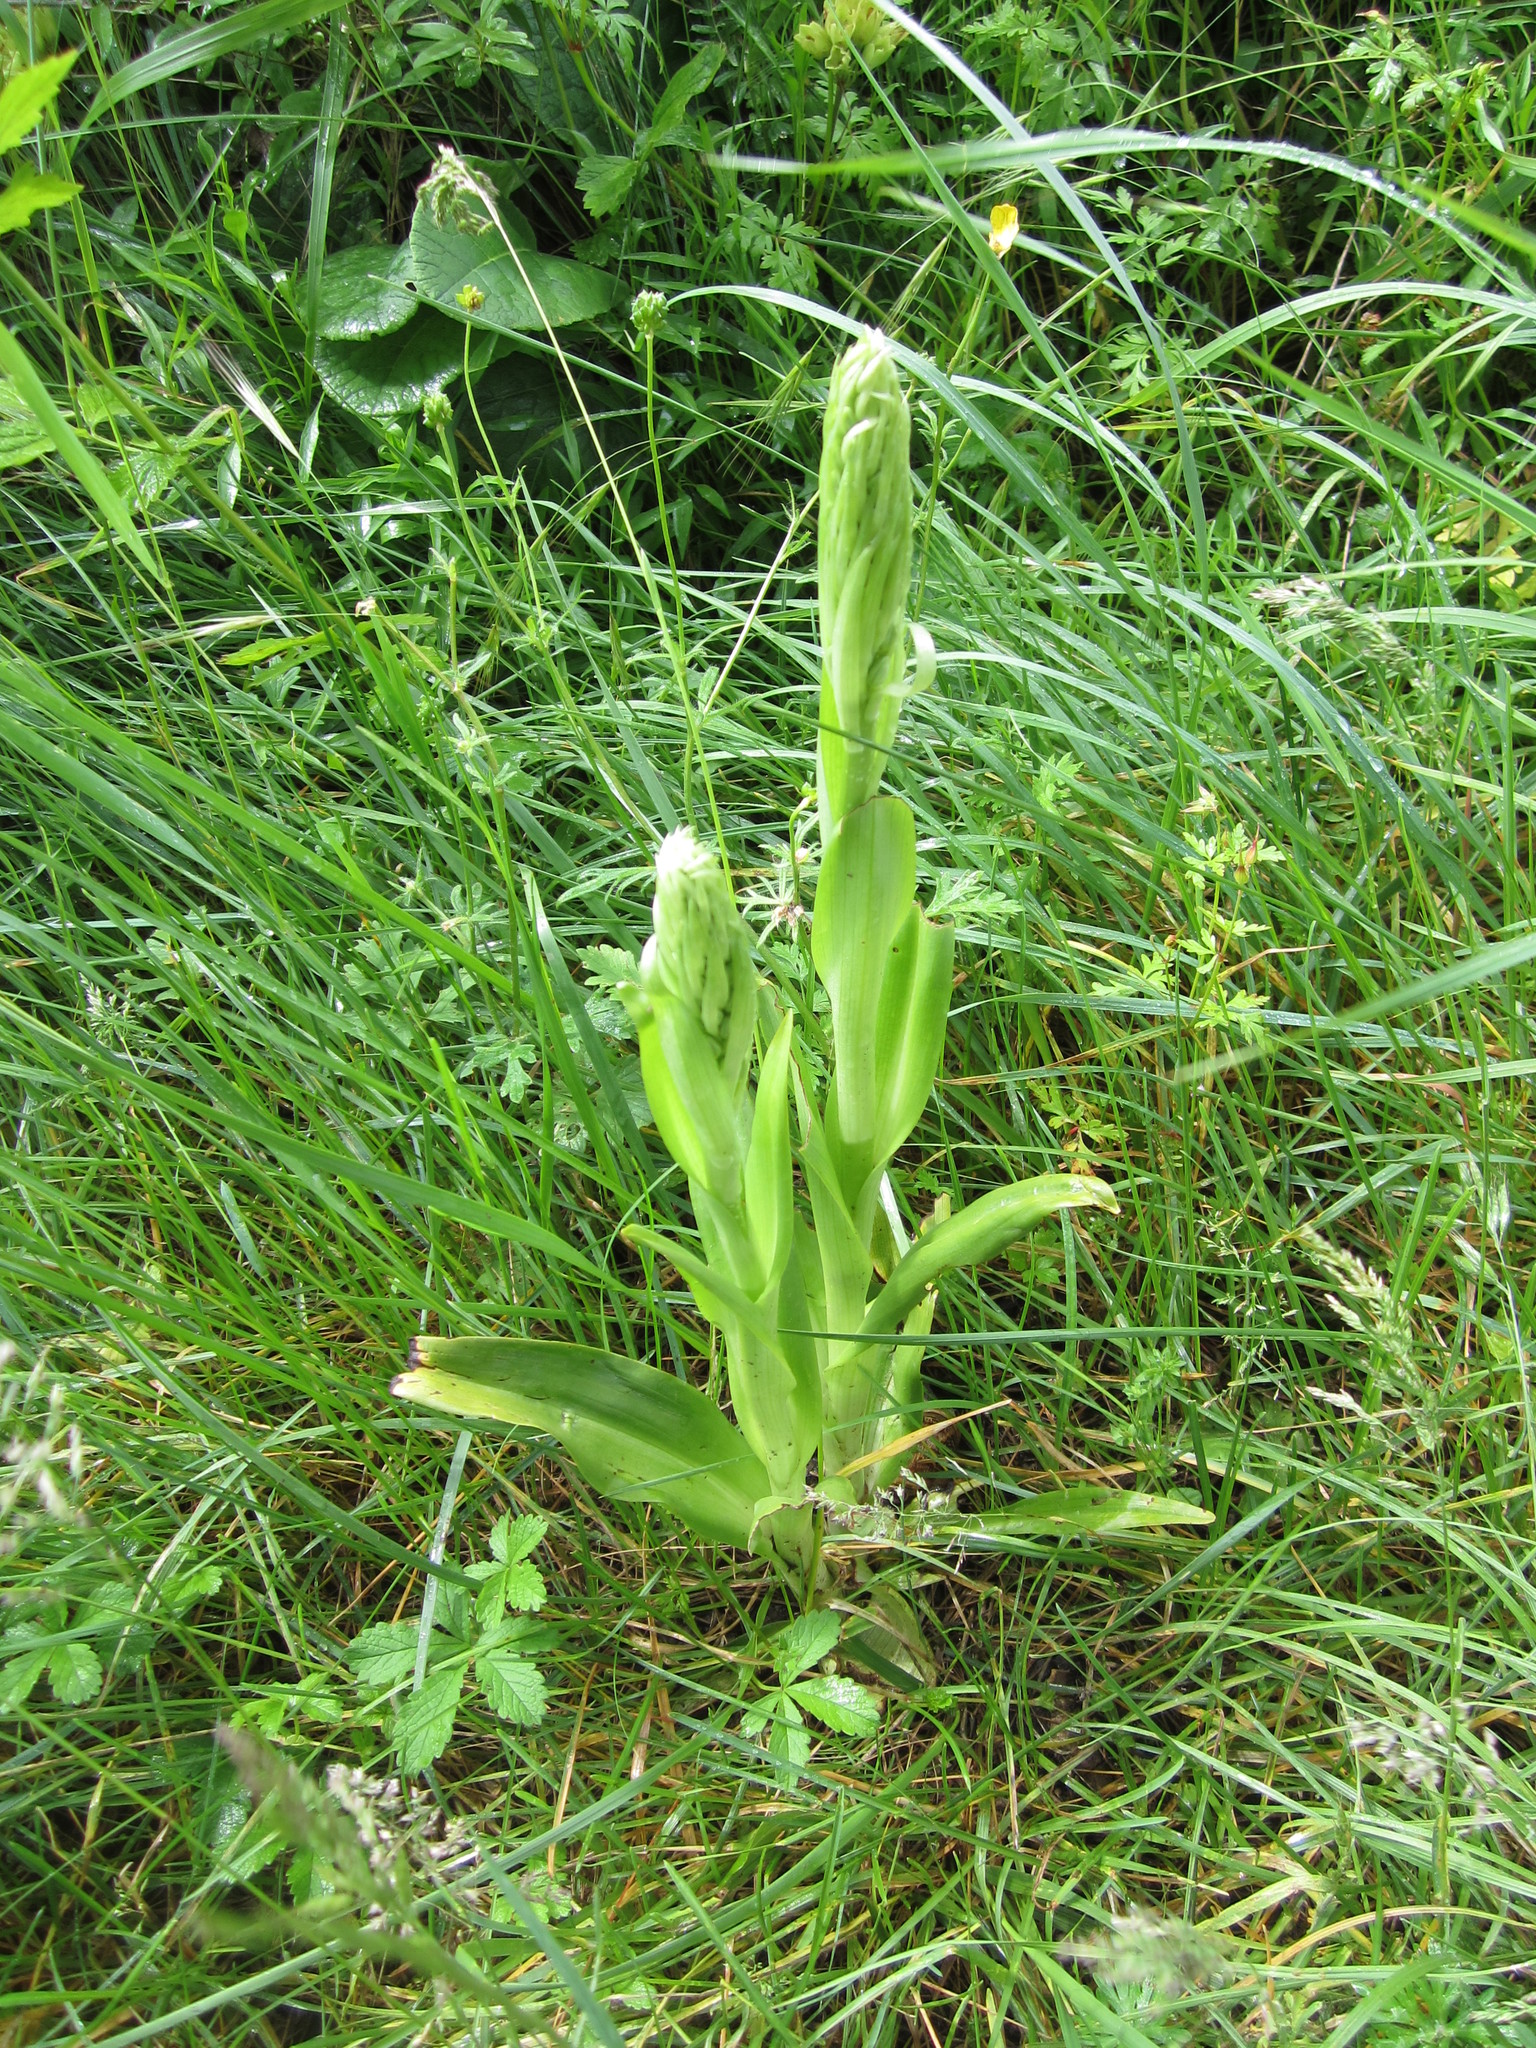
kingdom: Plantae
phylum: Tracheophyta
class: Liliopsida
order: Asparagales
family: Orchidaceae
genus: Himantoglossum
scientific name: Himantoglossum hircinum
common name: Lizard orchid
